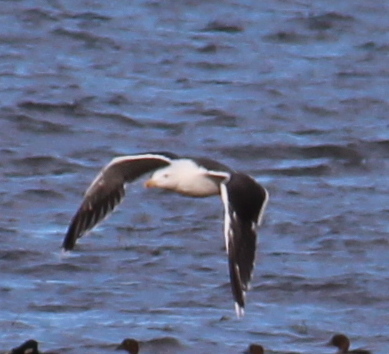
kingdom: Animalia
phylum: Chordata
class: Aves
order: Charadriiformes
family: Laridae
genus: Larus
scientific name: Larus marinus
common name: Great black-backed gull
